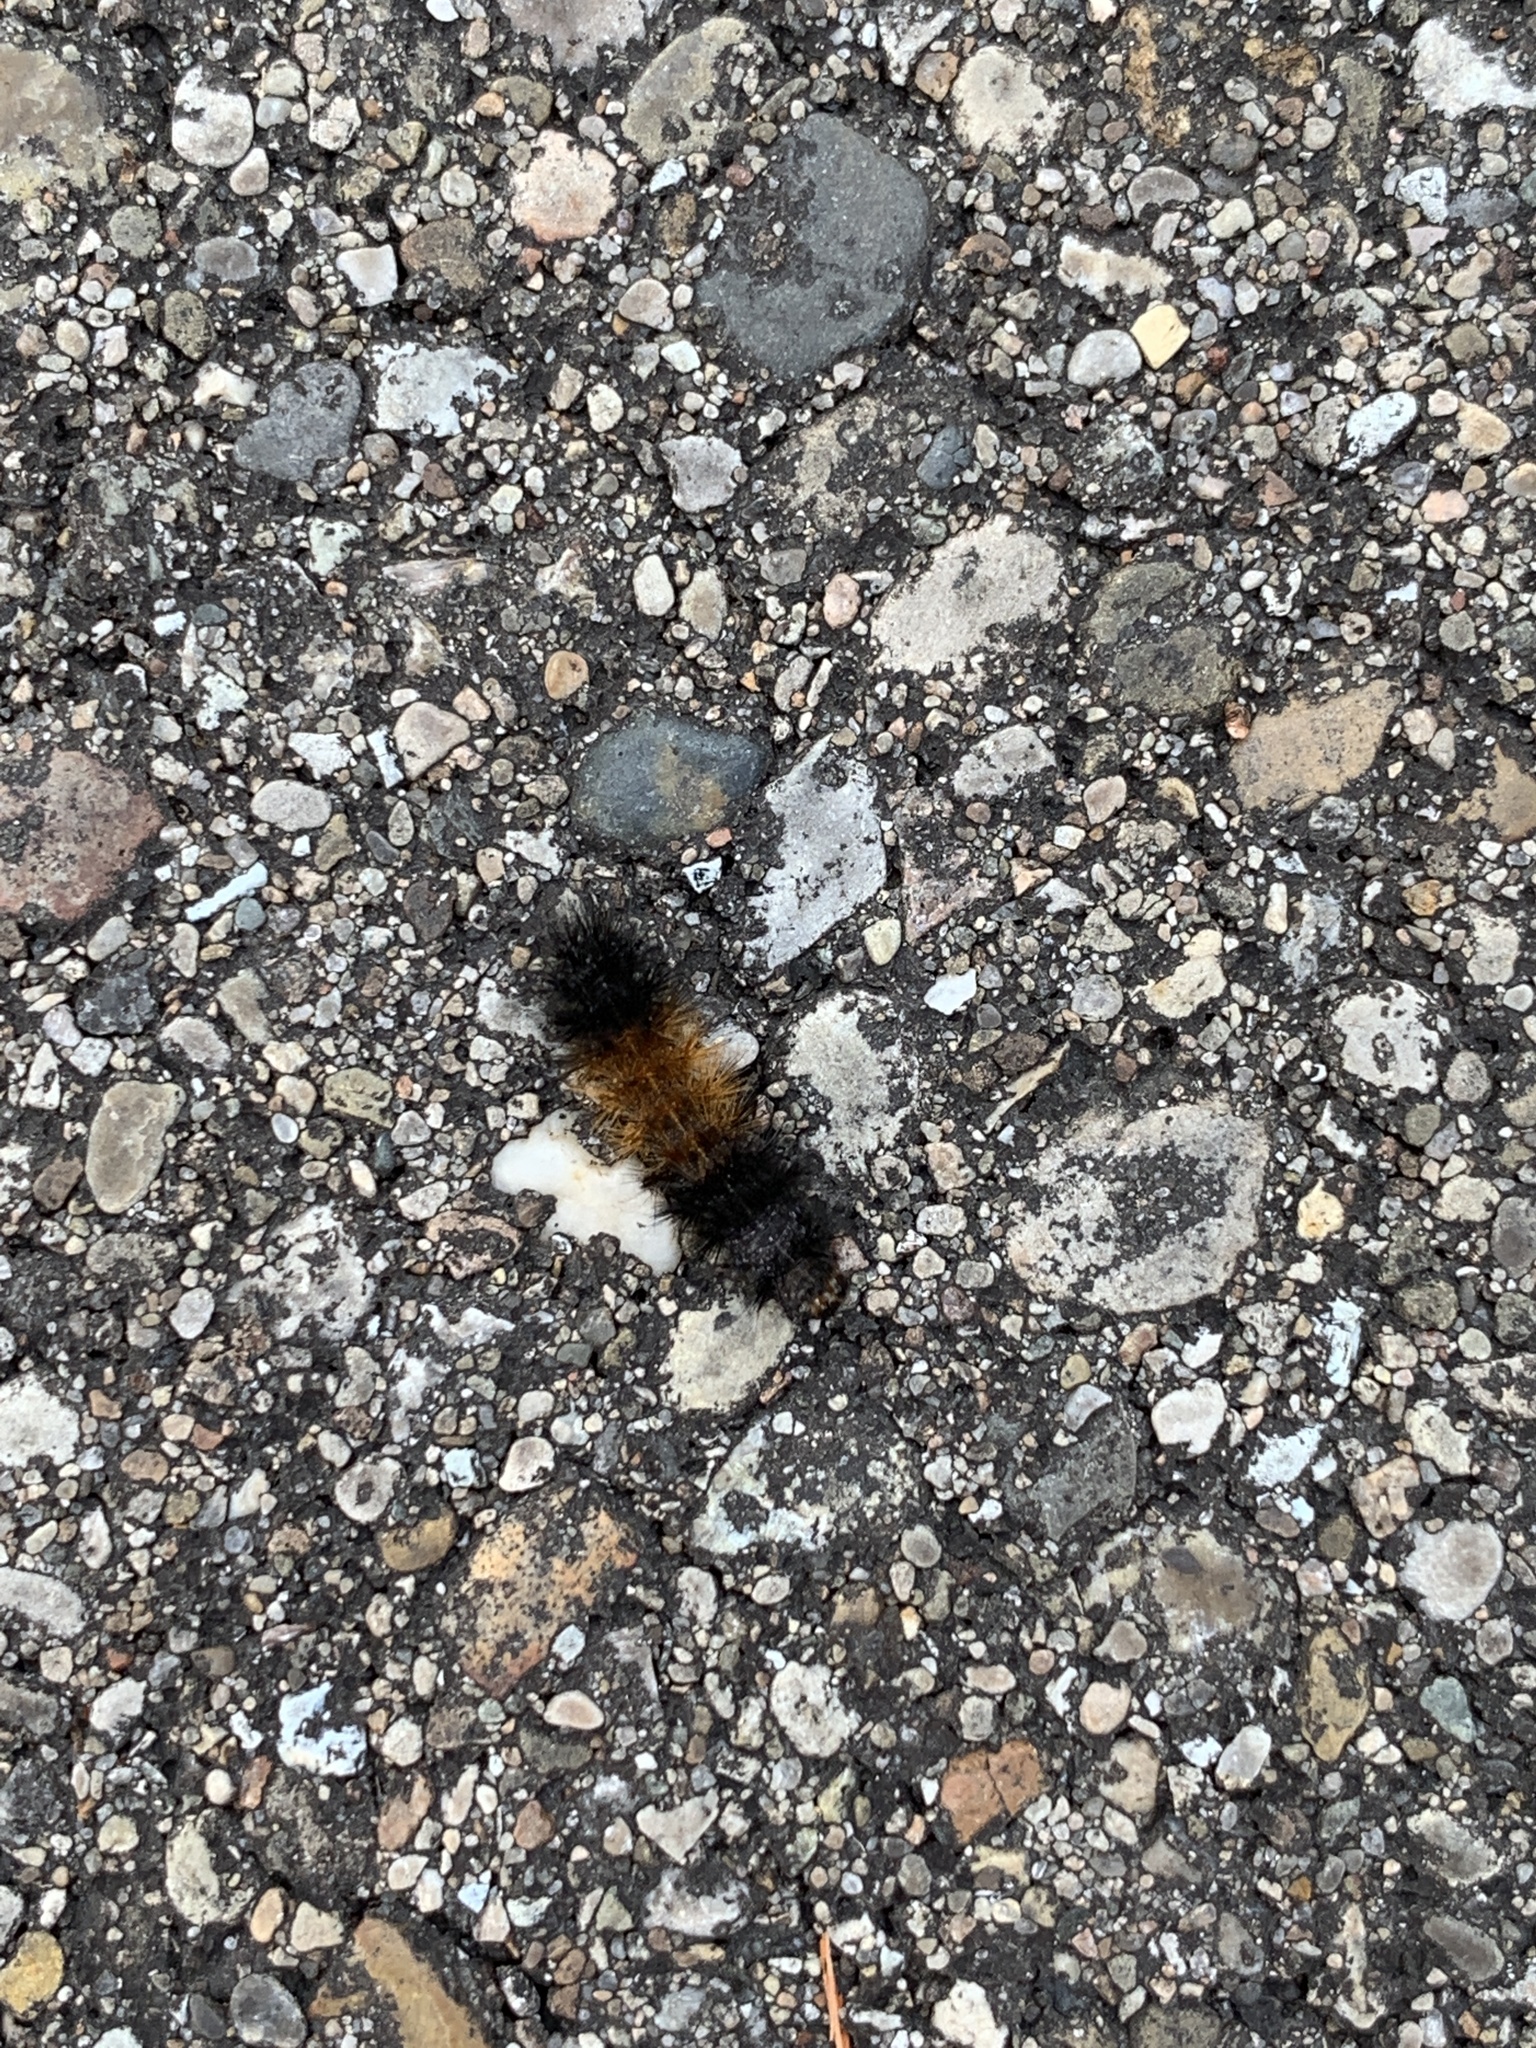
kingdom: Animalia
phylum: Arthropoda
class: Insecta
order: Lepidoptera
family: Erebidae
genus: Pyrrharctia
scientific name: Pyrrharctia isabella
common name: Isabella tiger moth
